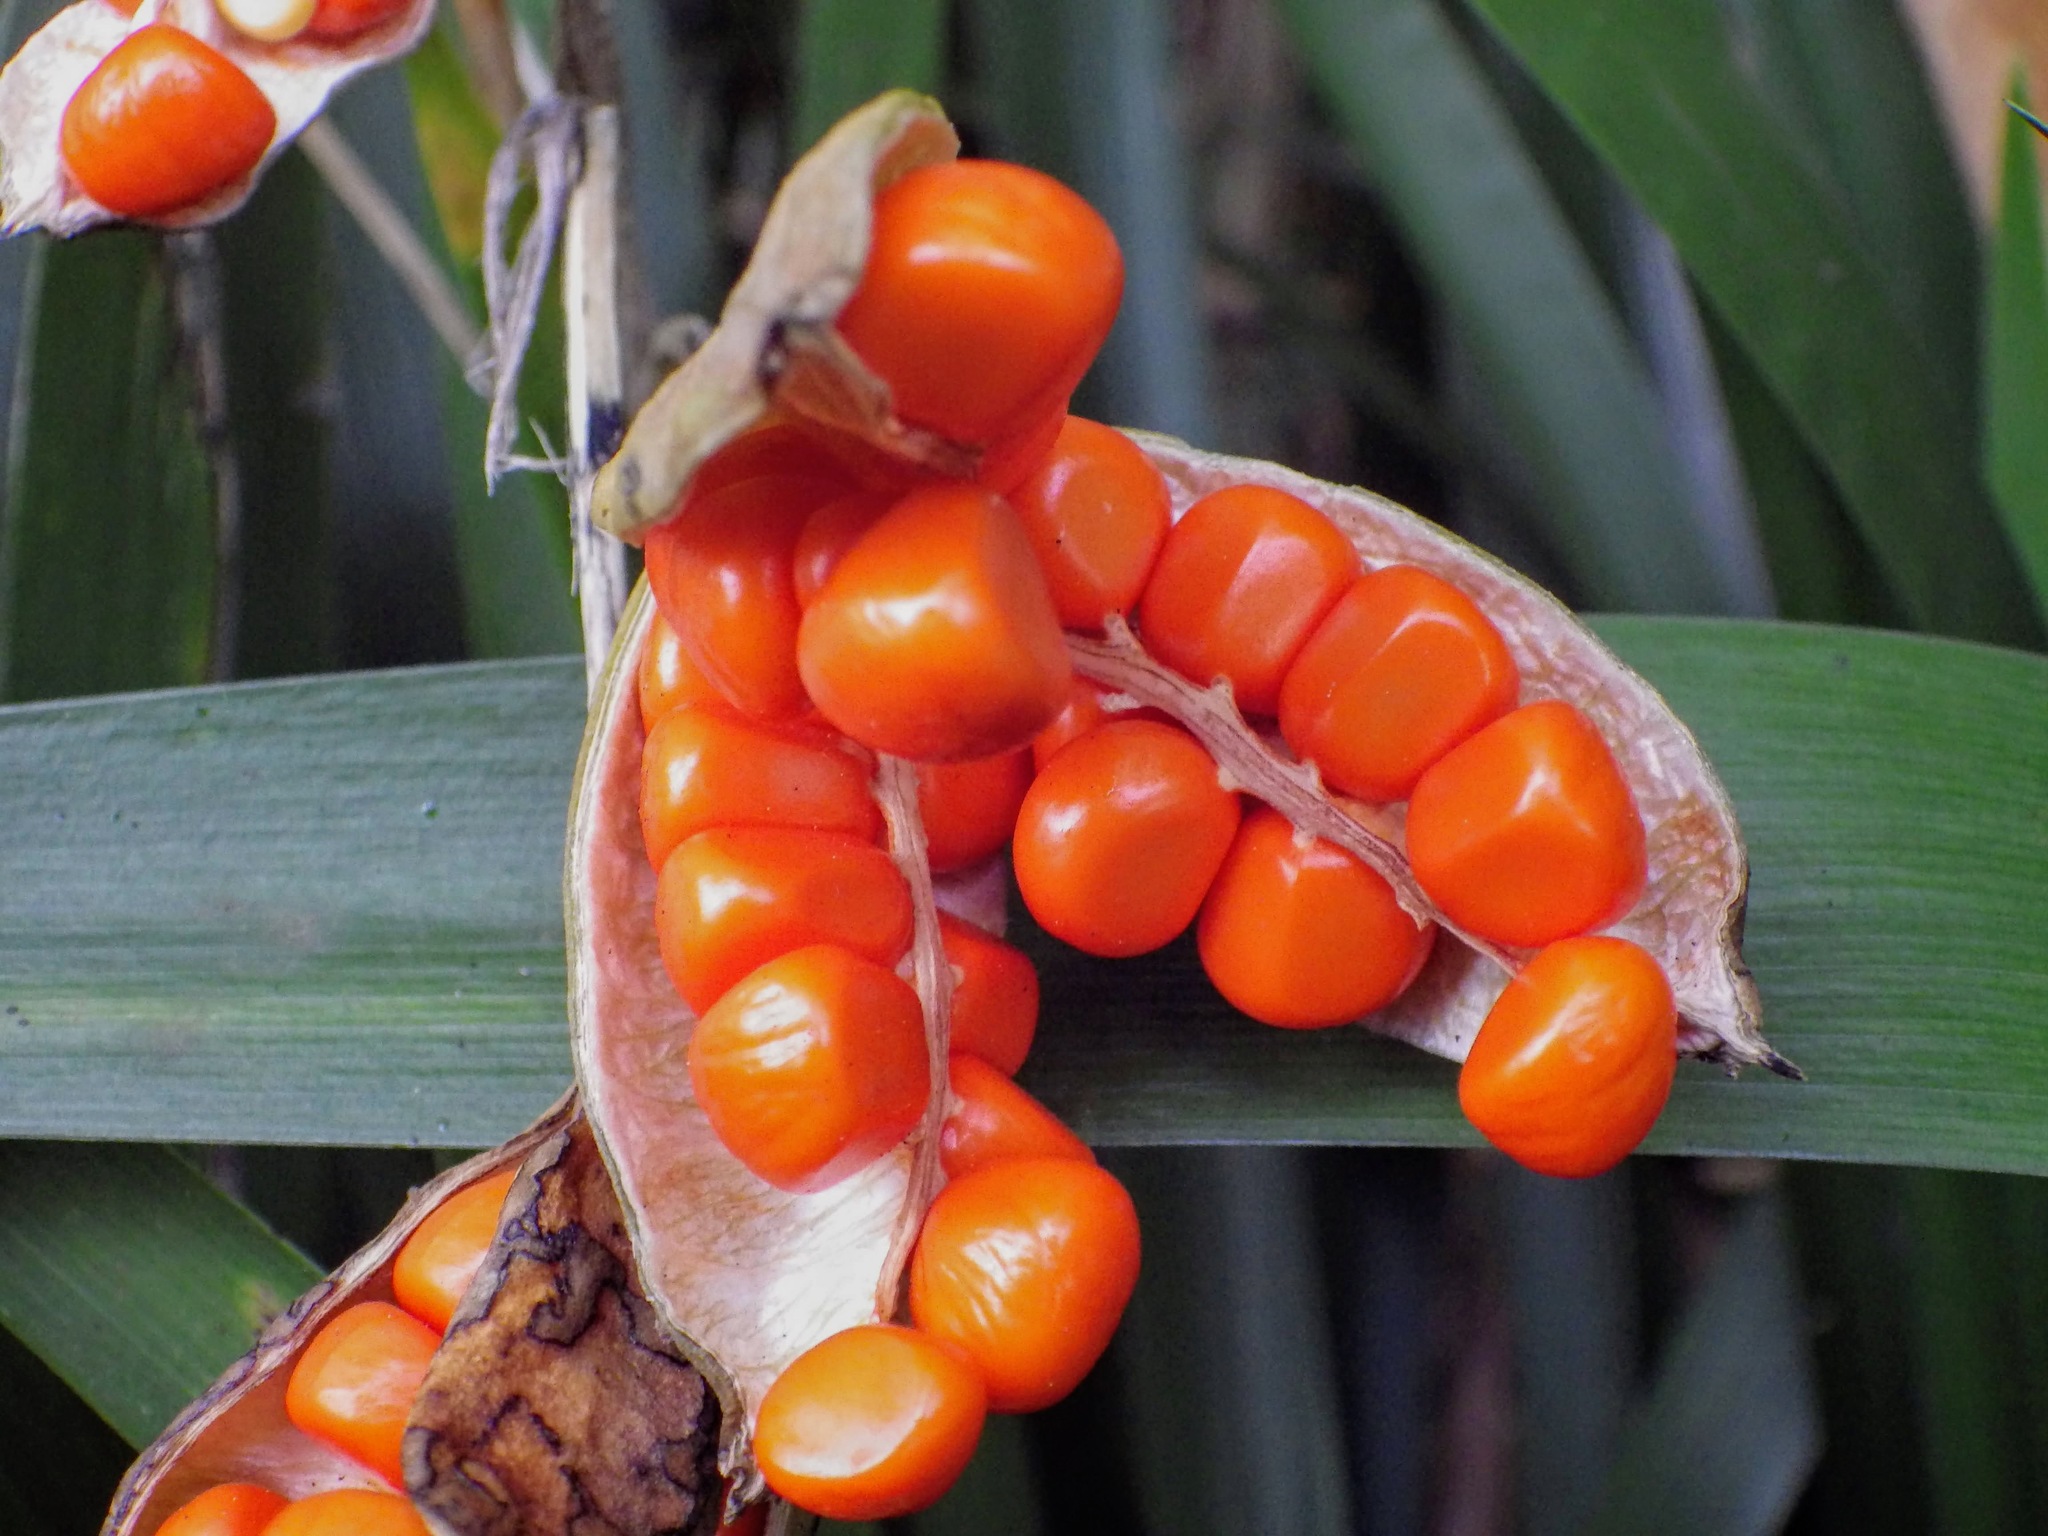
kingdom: Plantae
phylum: Tracheophyta
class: Liliopsida
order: Asparagales
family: Iridaceae
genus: Iris
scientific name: Iris foetidissima
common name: Stinking iris
